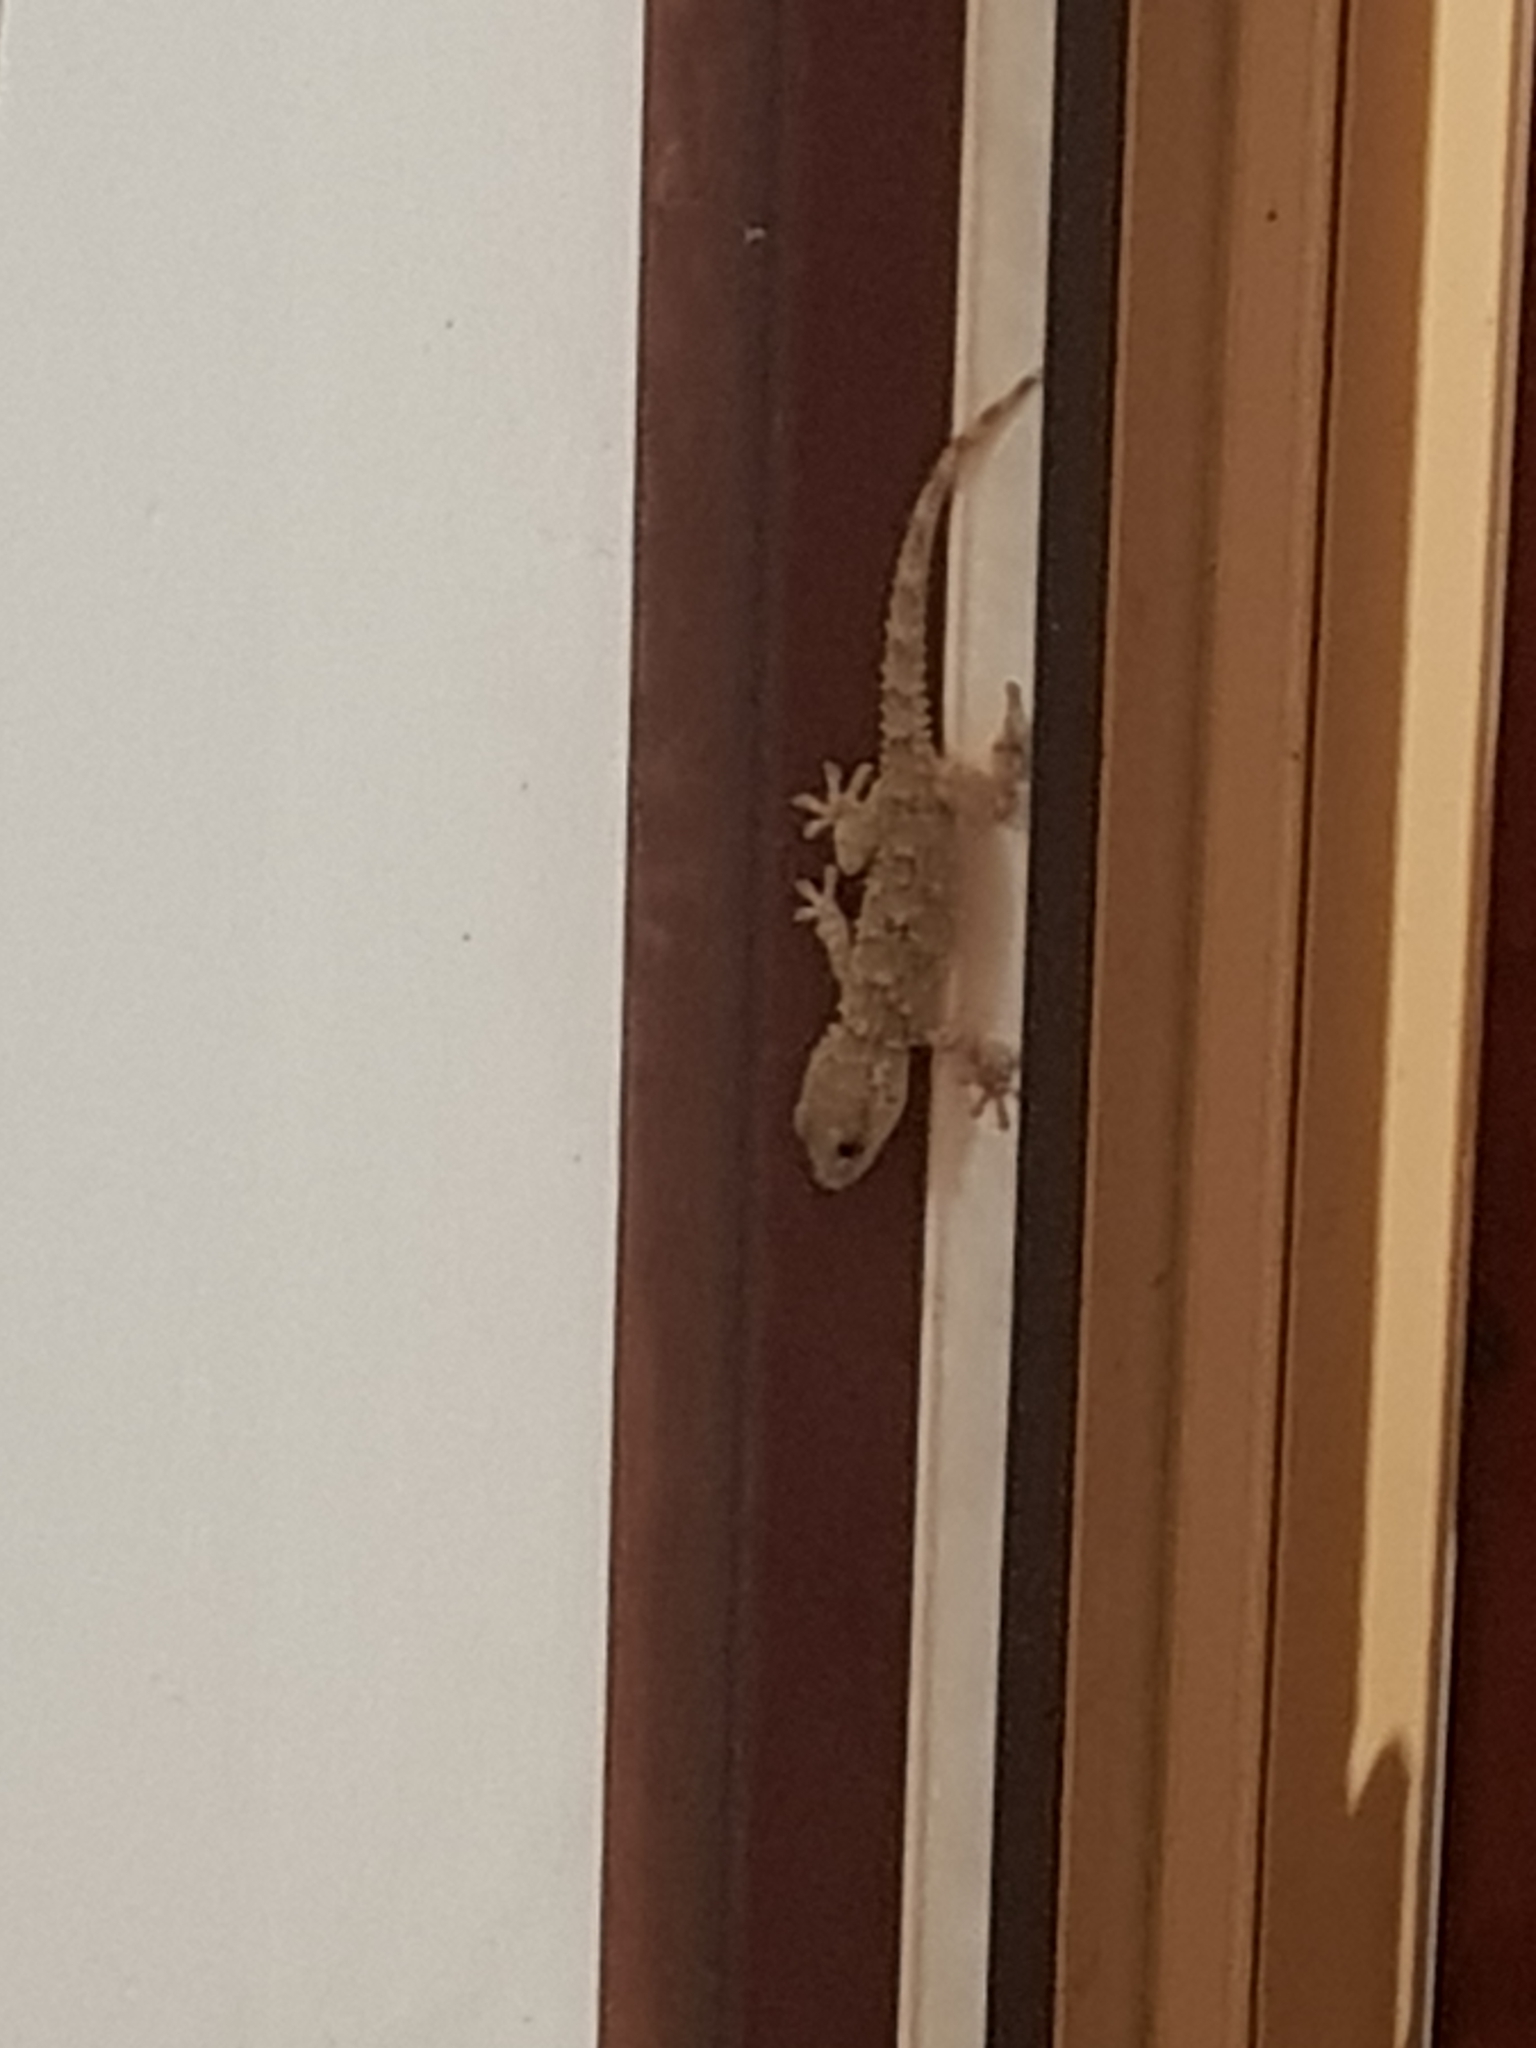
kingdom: Animalia
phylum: Chordata
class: Squamata
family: Phyllodactylidae
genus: Tarentola
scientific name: Tarentola mauritanica
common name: Moorish gecko
